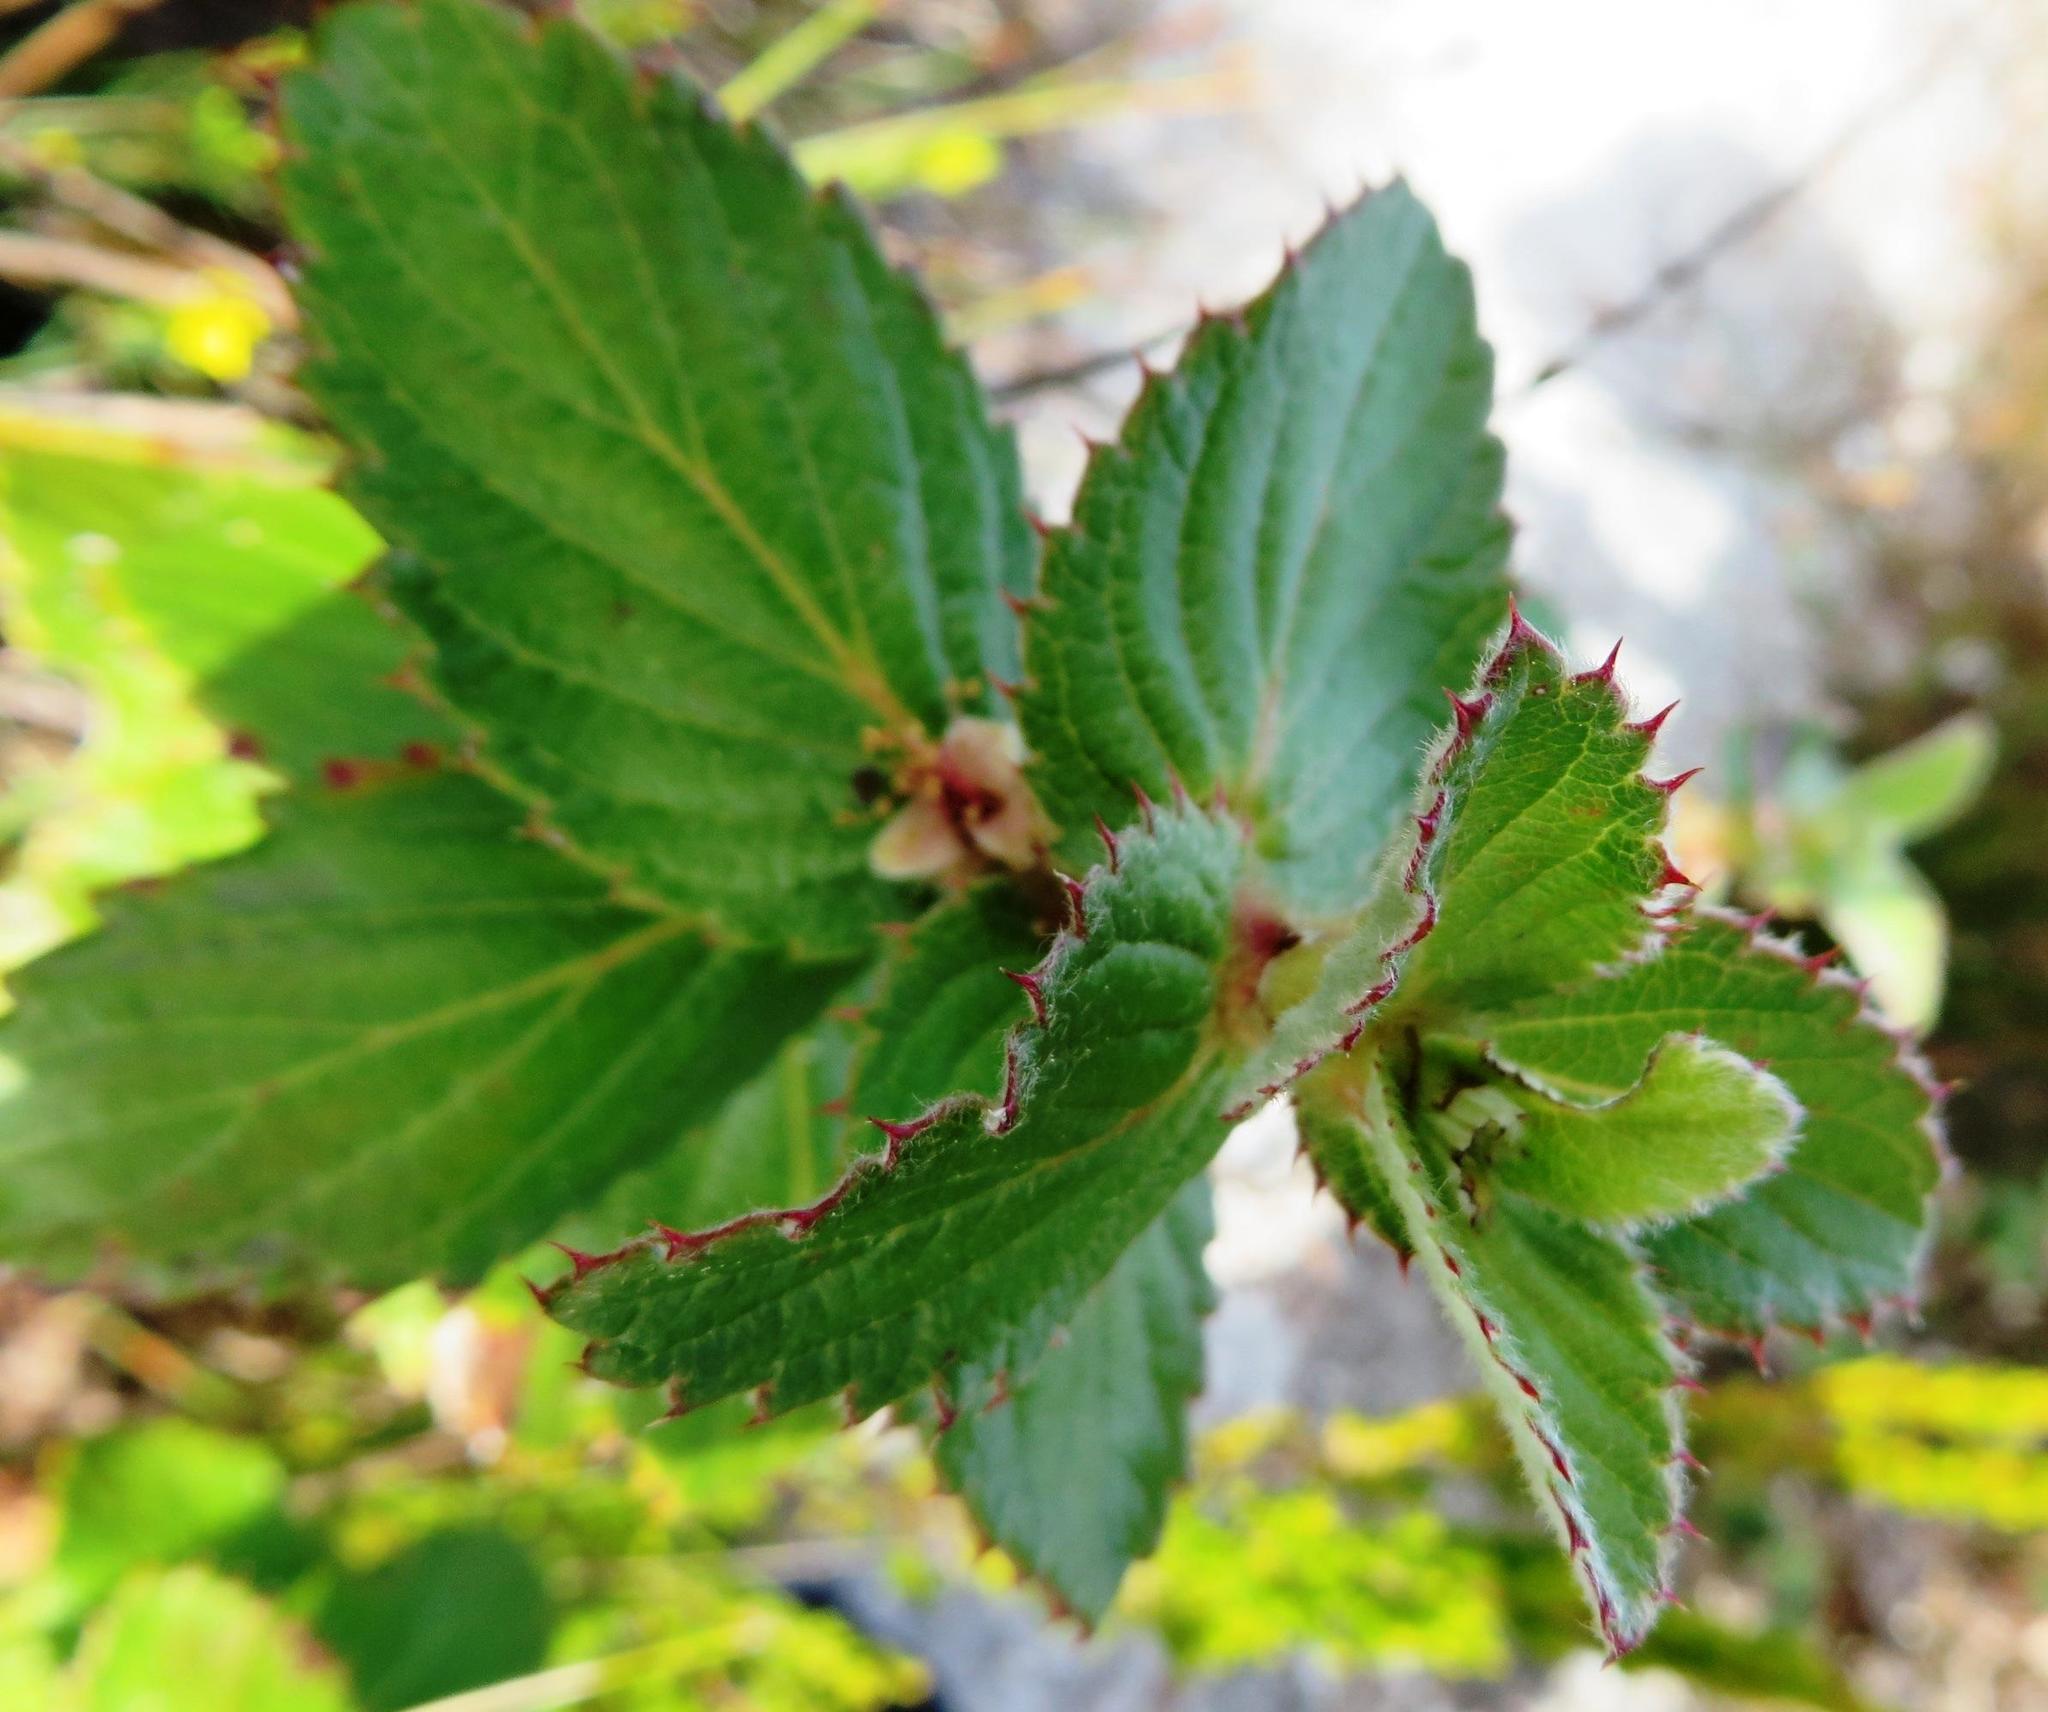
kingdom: Plantae
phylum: Tracheophyta
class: Magnoliopsida
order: Rosales
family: Rosaceae
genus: Cliffortia
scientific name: Cliffortia hirsuta
